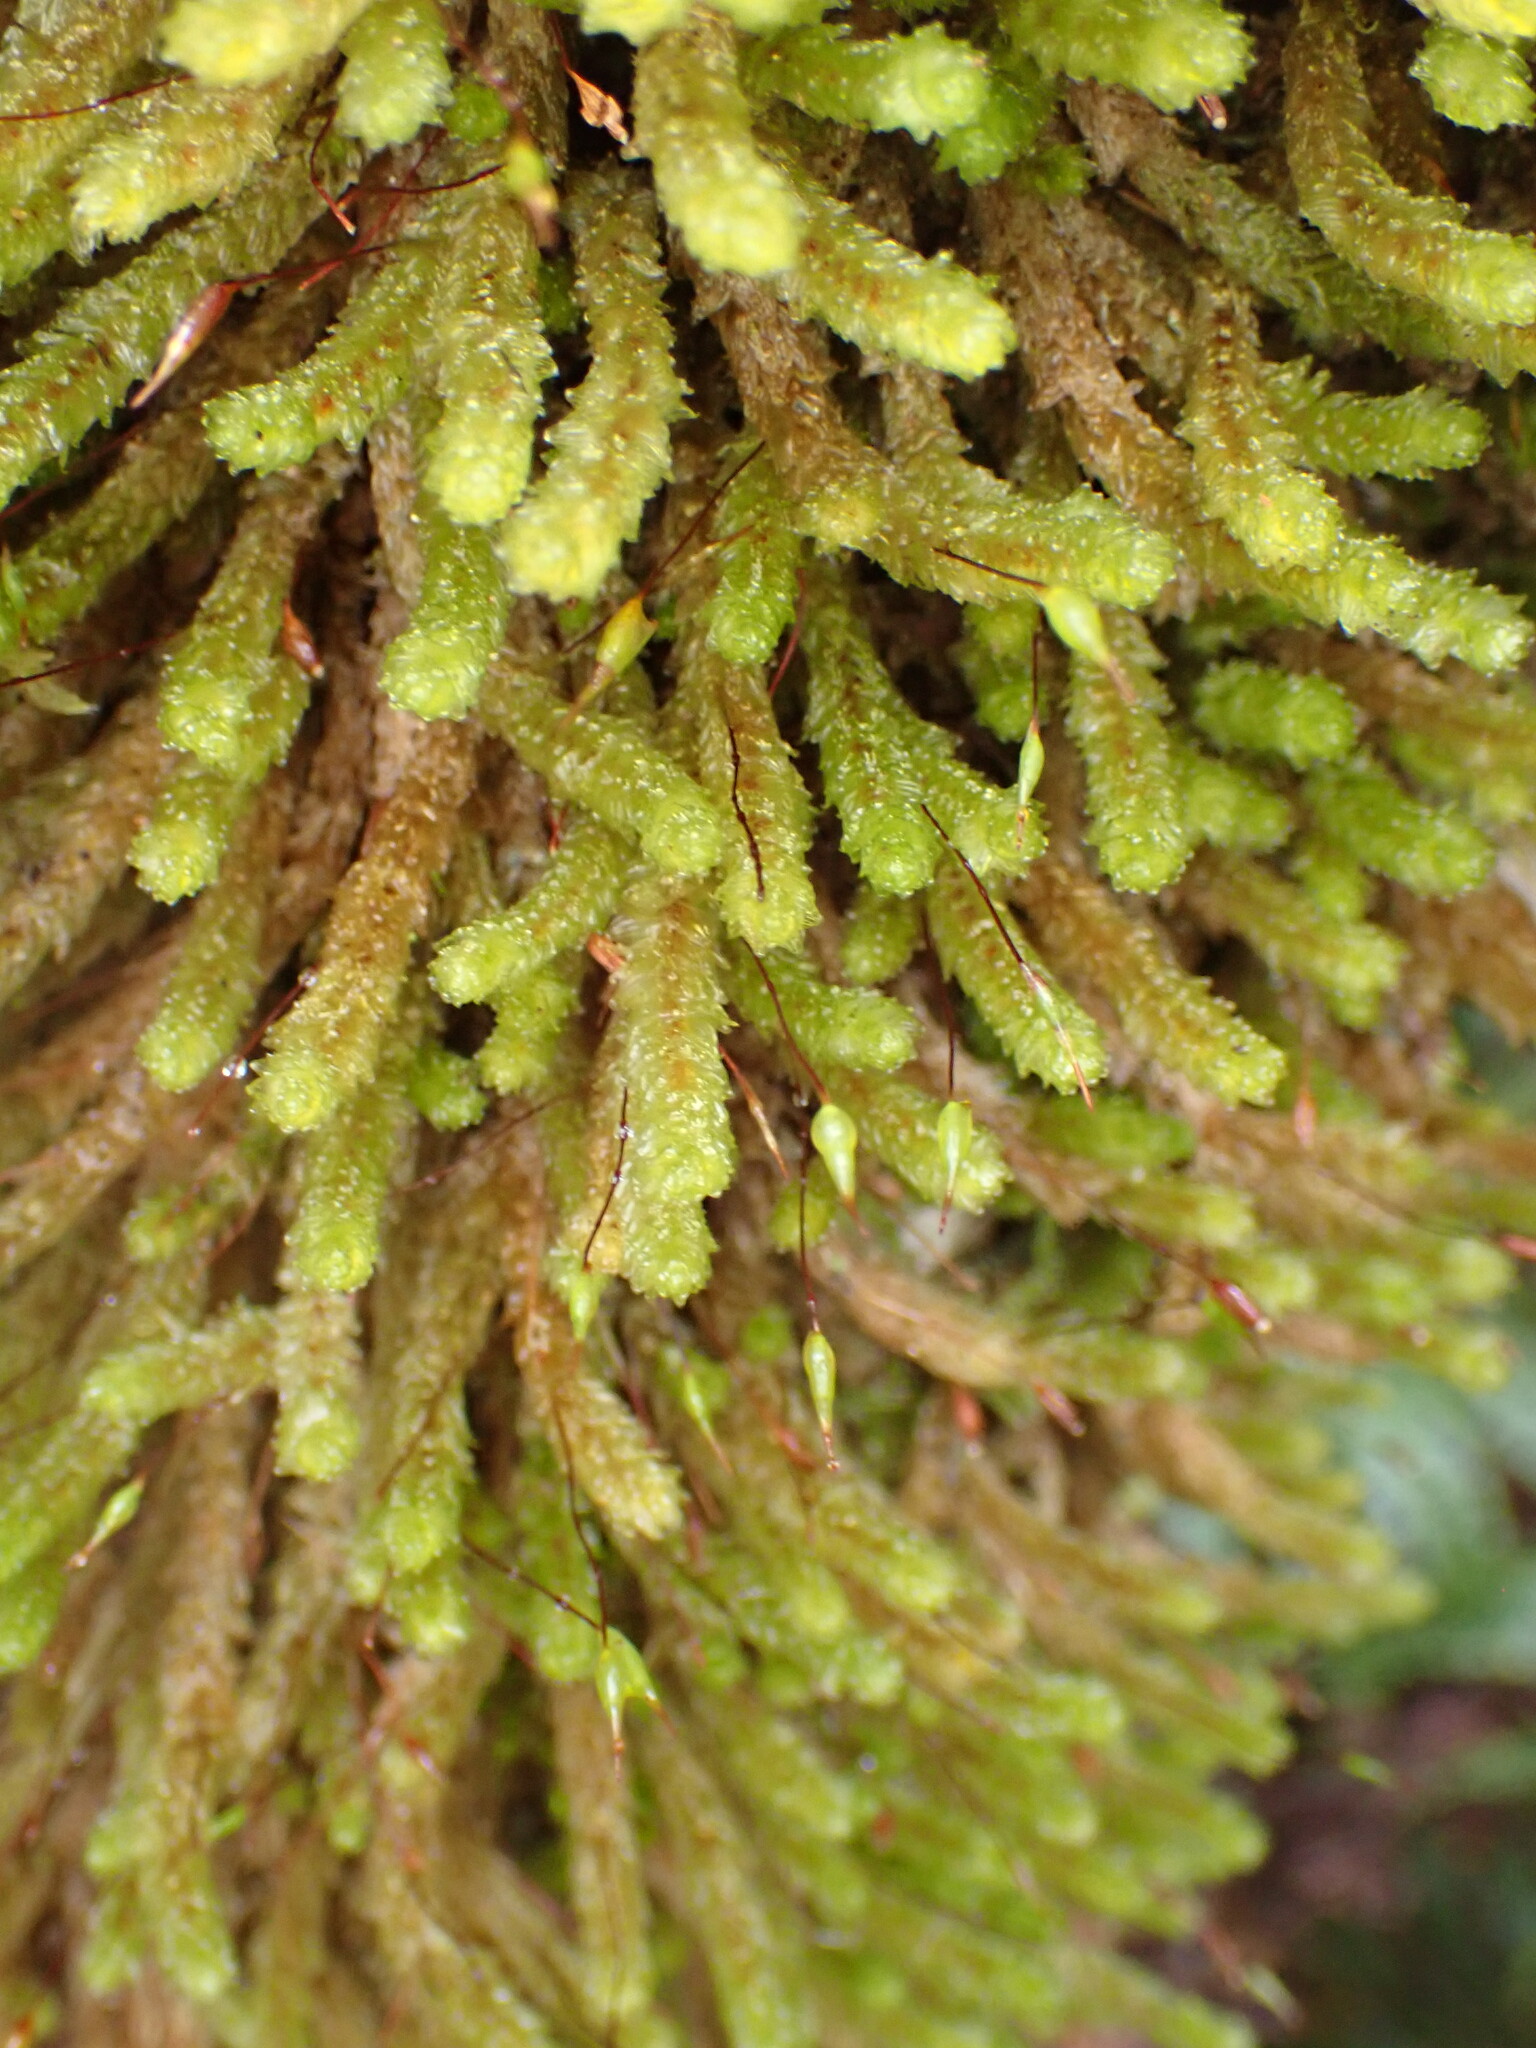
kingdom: Plantae
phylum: Bryophyta
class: Bryopsida
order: Ptychomniales
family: Ptychomniaceae
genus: Cladomnion
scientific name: Cladomnion ericoides
